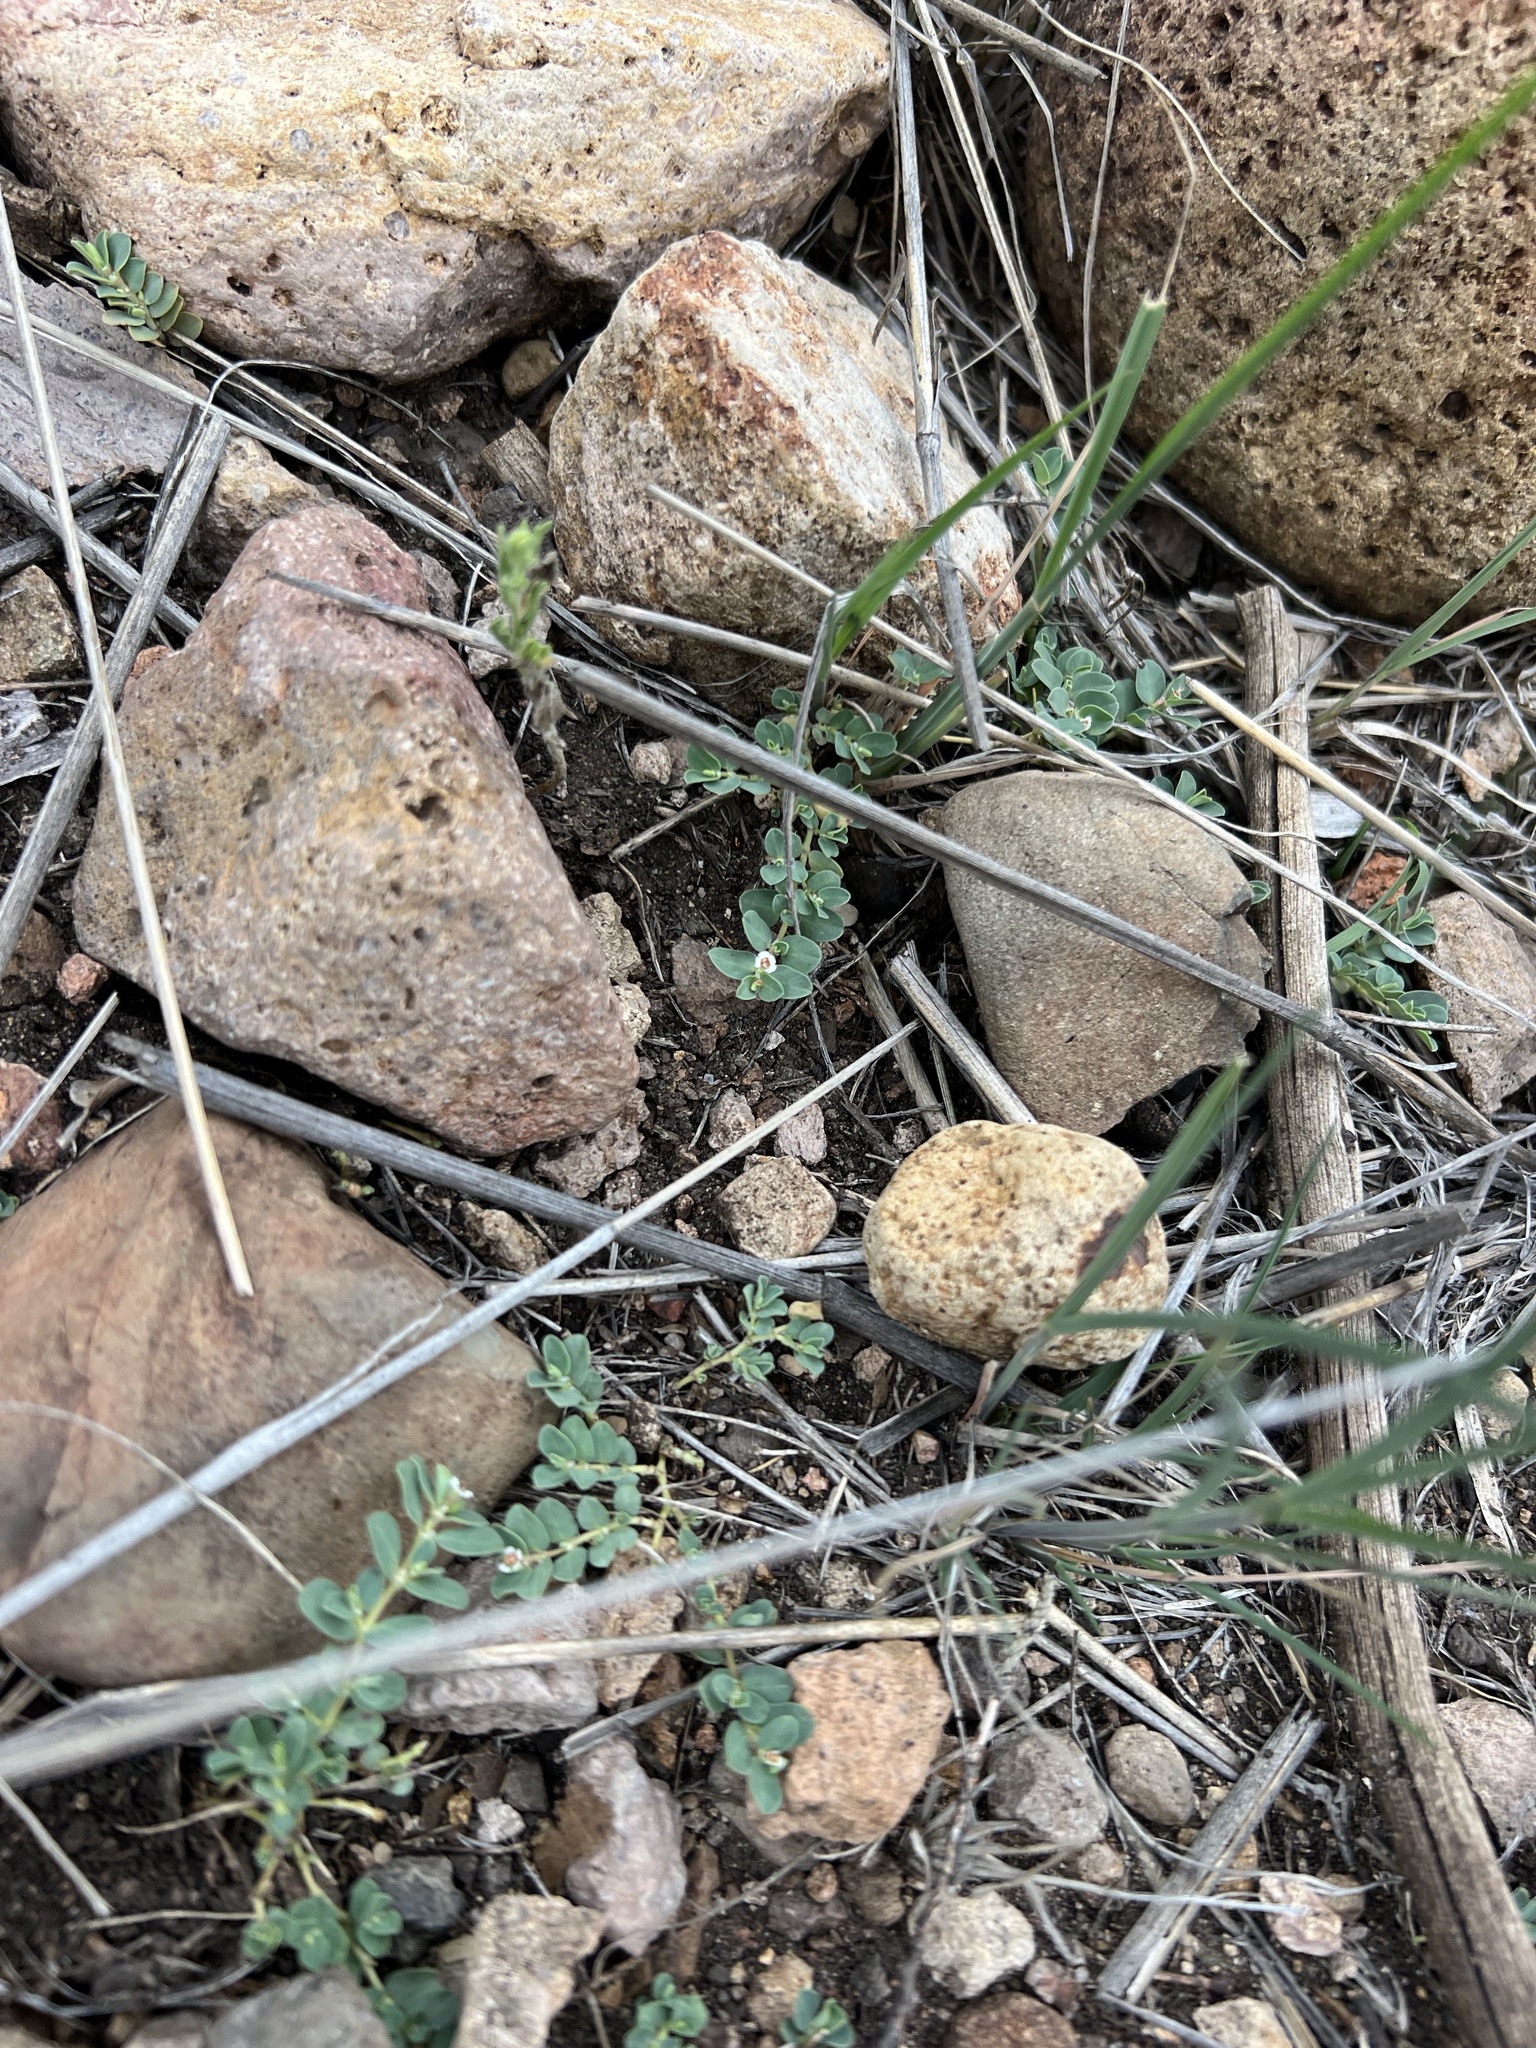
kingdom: Plantae
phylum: Tracheophyta
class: Magnoliopsida
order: Malpighiales
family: Euphorbiaceae
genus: Euphorbia
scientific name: Euphorbia albomarginata
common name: Whitemargin sandmat
